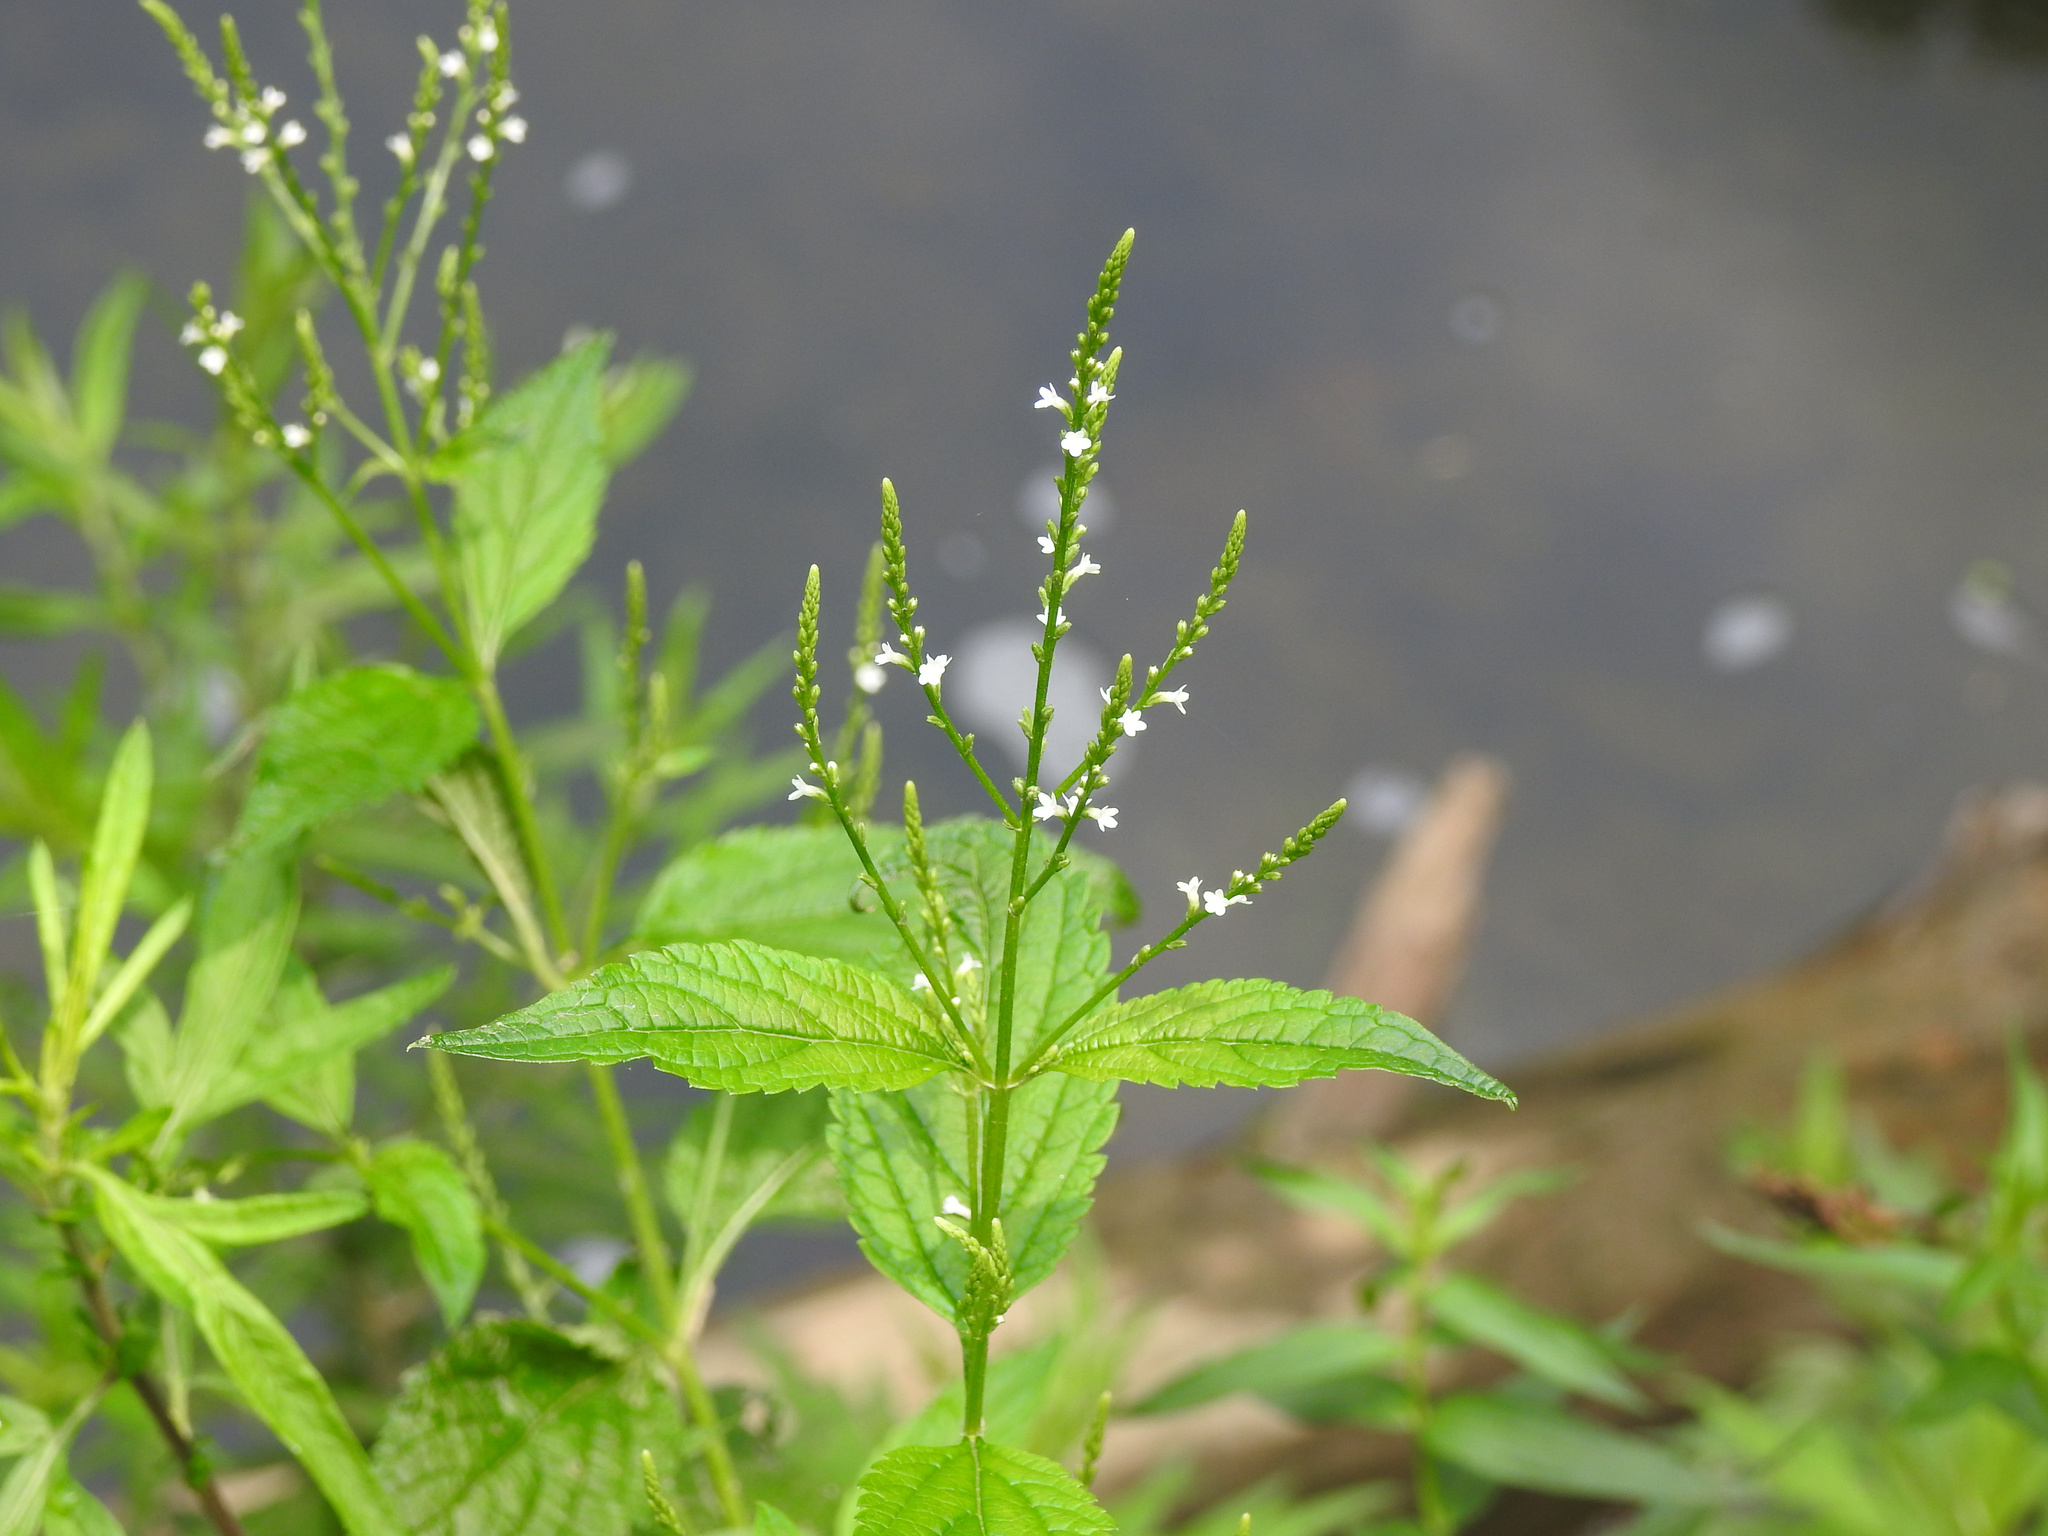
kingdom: Plantae
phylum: Tracheophyta
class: Magnoliopsida
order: Lamiales
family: Verbenaceae
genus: Verbena
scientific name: Verbena urticifolia
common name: Nettle-leaved vervain
